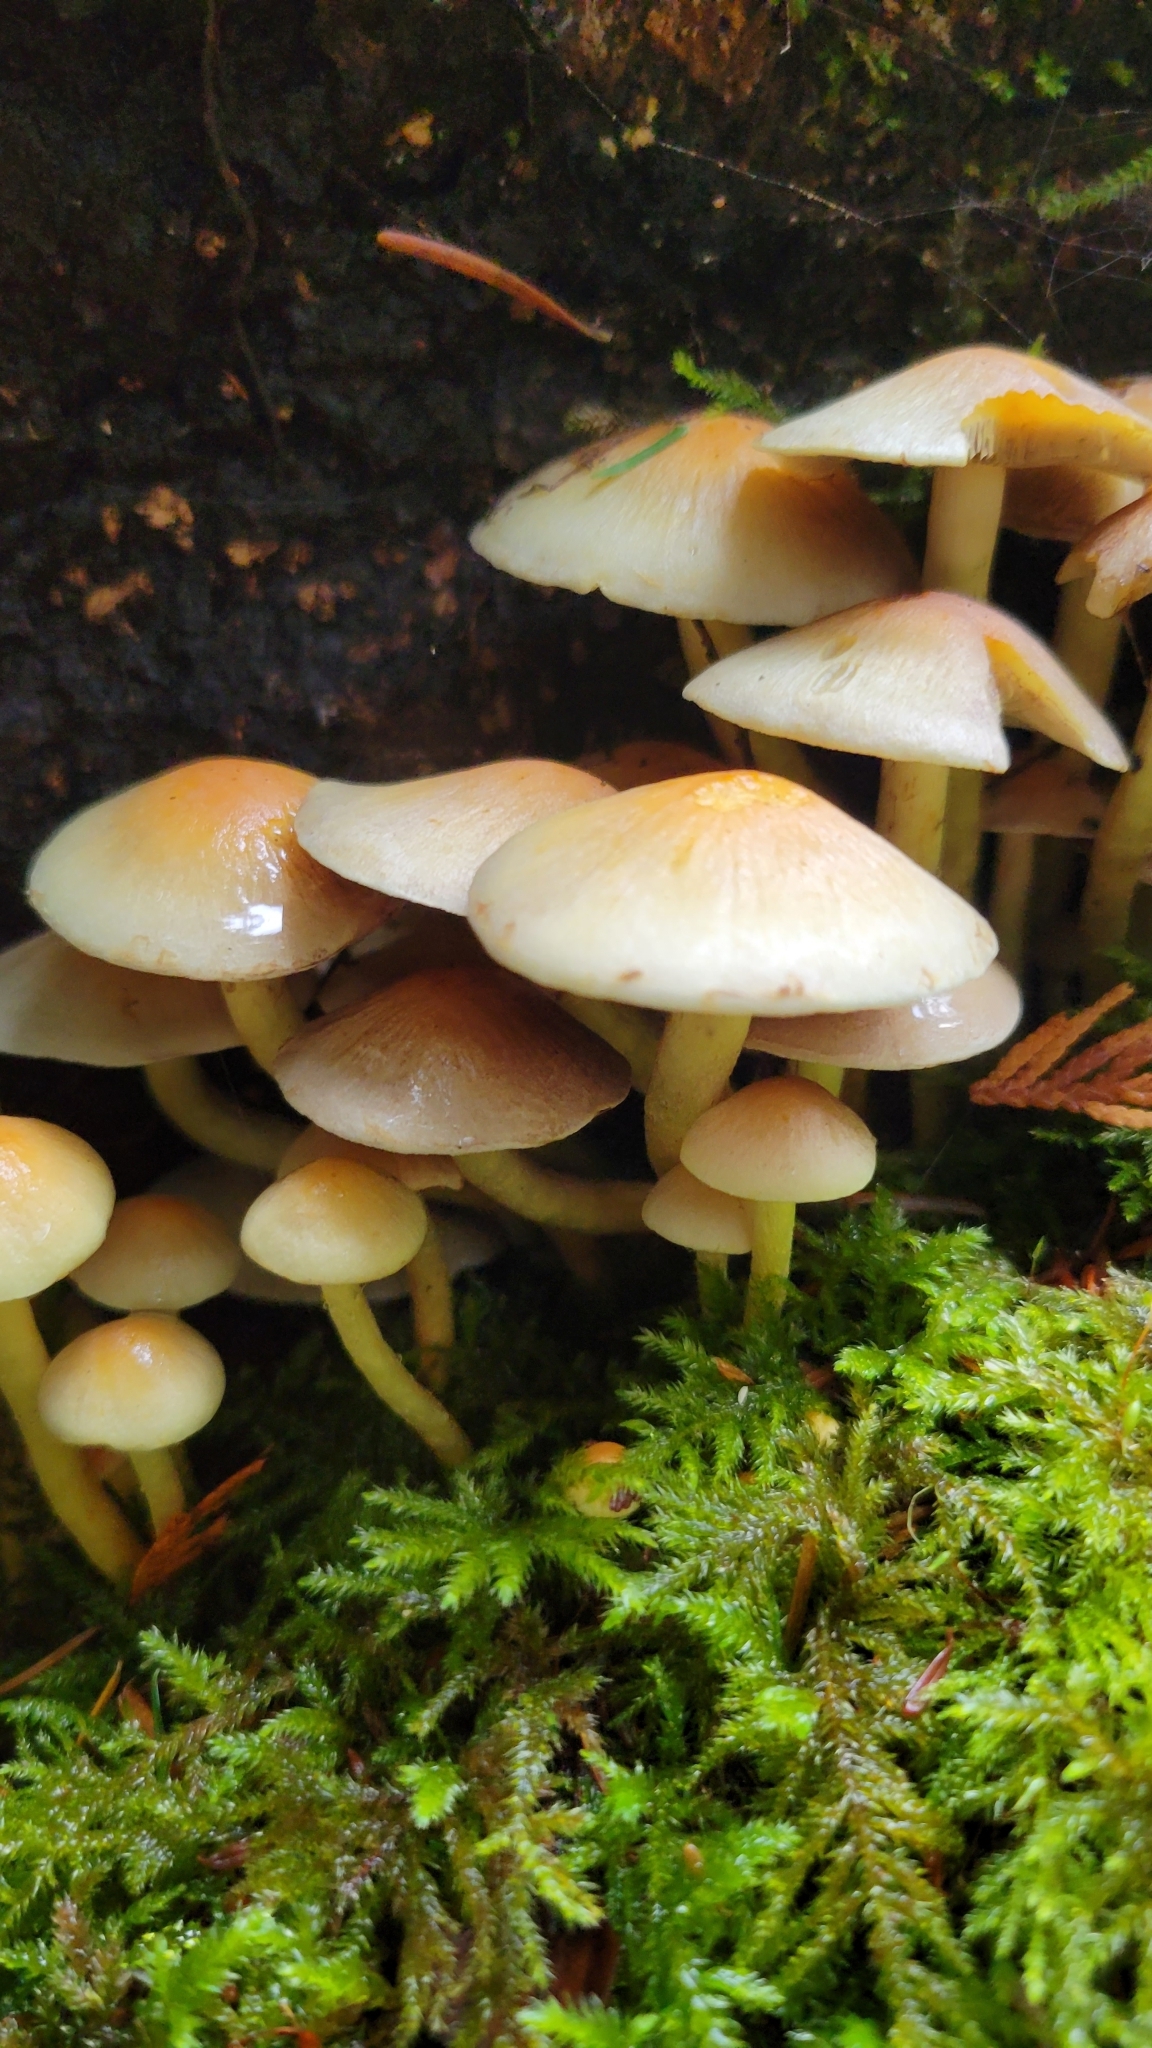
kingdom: Fungi
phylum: Basidiomycota
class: Agaricomycetes
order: Agaricales
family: Strophariaceae
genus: Hypholoma
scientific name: Hypholoma fasciculare
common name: Sulphur tuft
